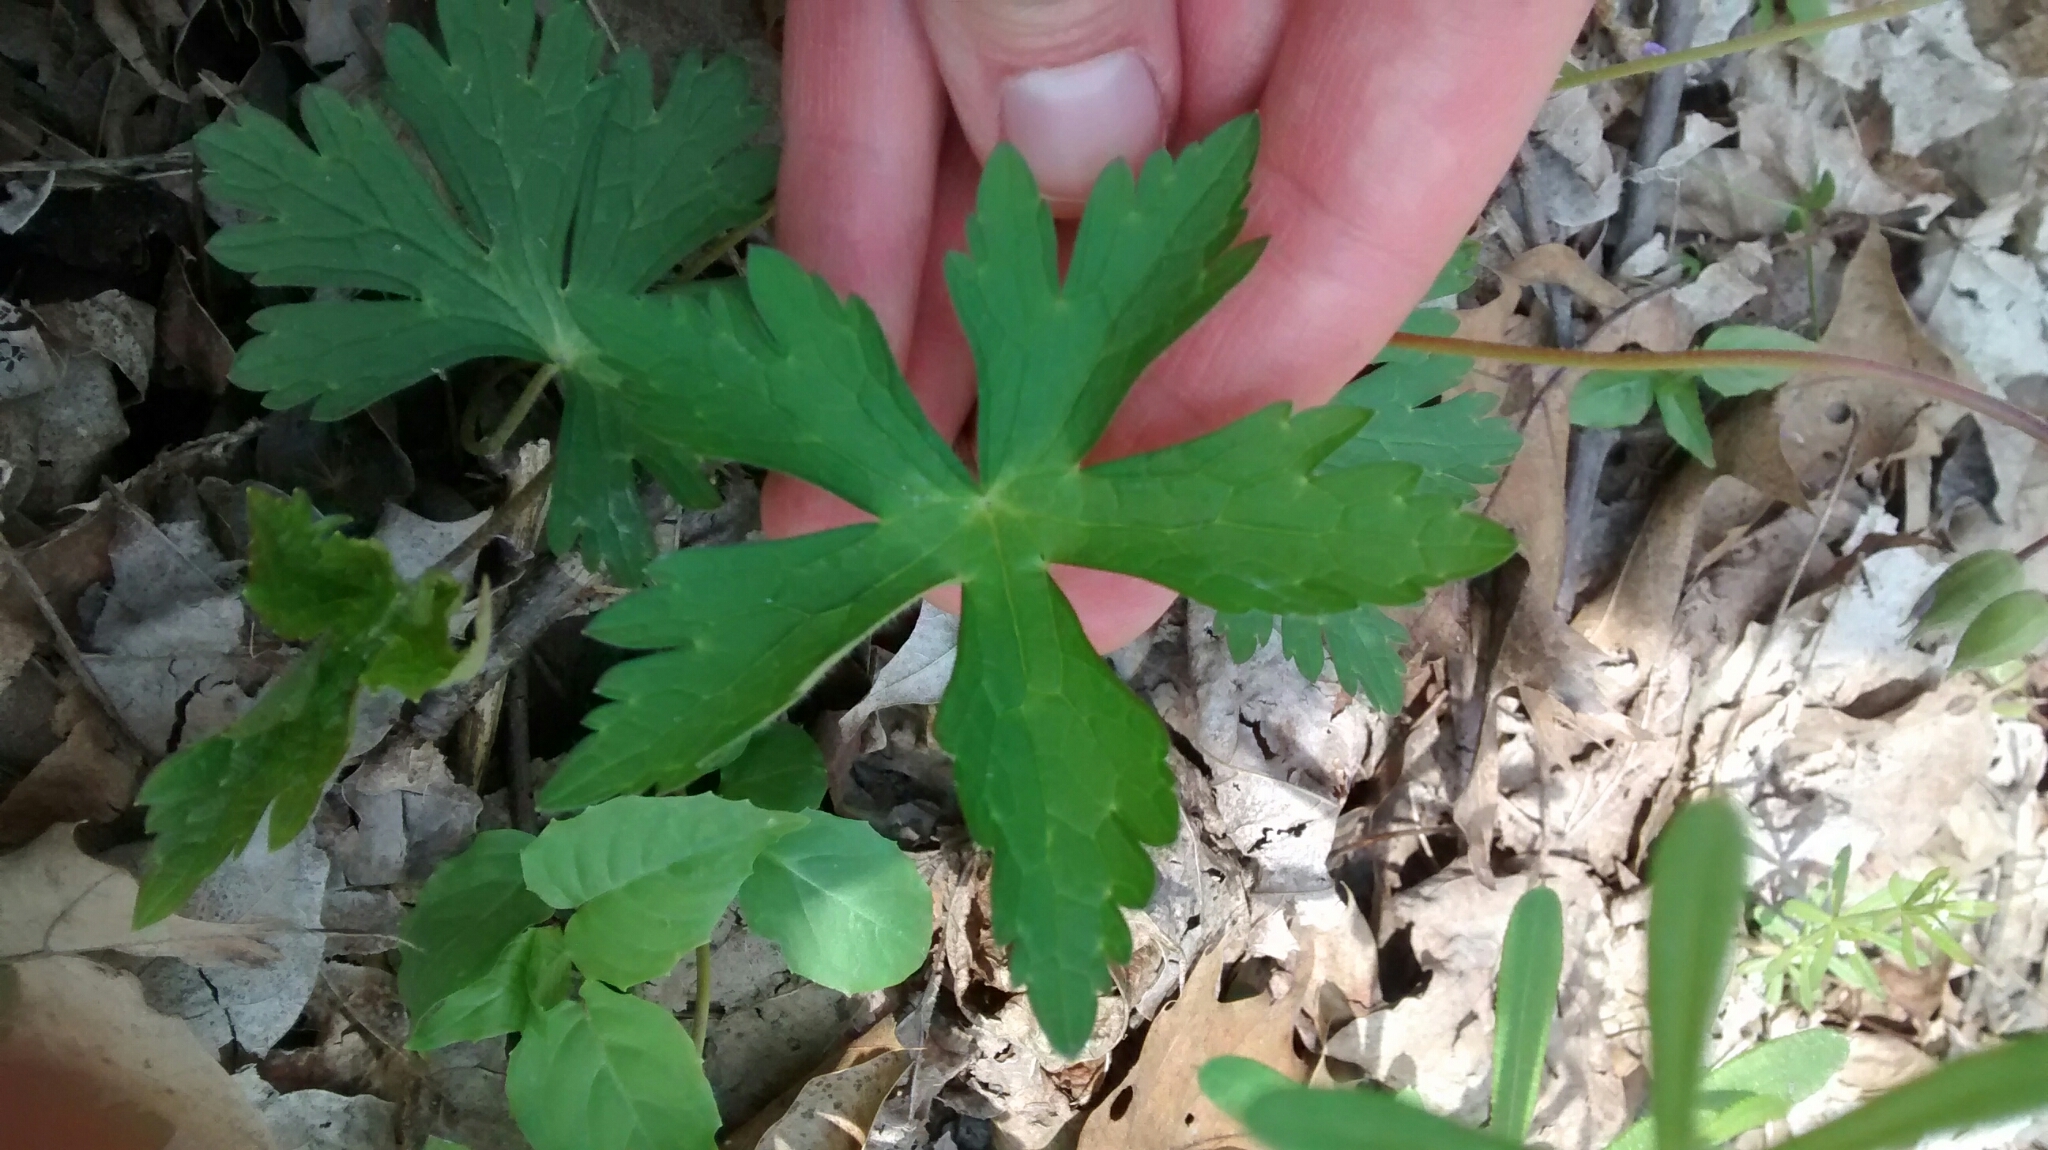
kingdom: Plantae
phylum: Tracheophyta
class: Magnoliopsida
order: Geraniales
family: Geraniaceae
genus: Geranium
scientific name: Geranium maculatum
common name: Spotted geranium
